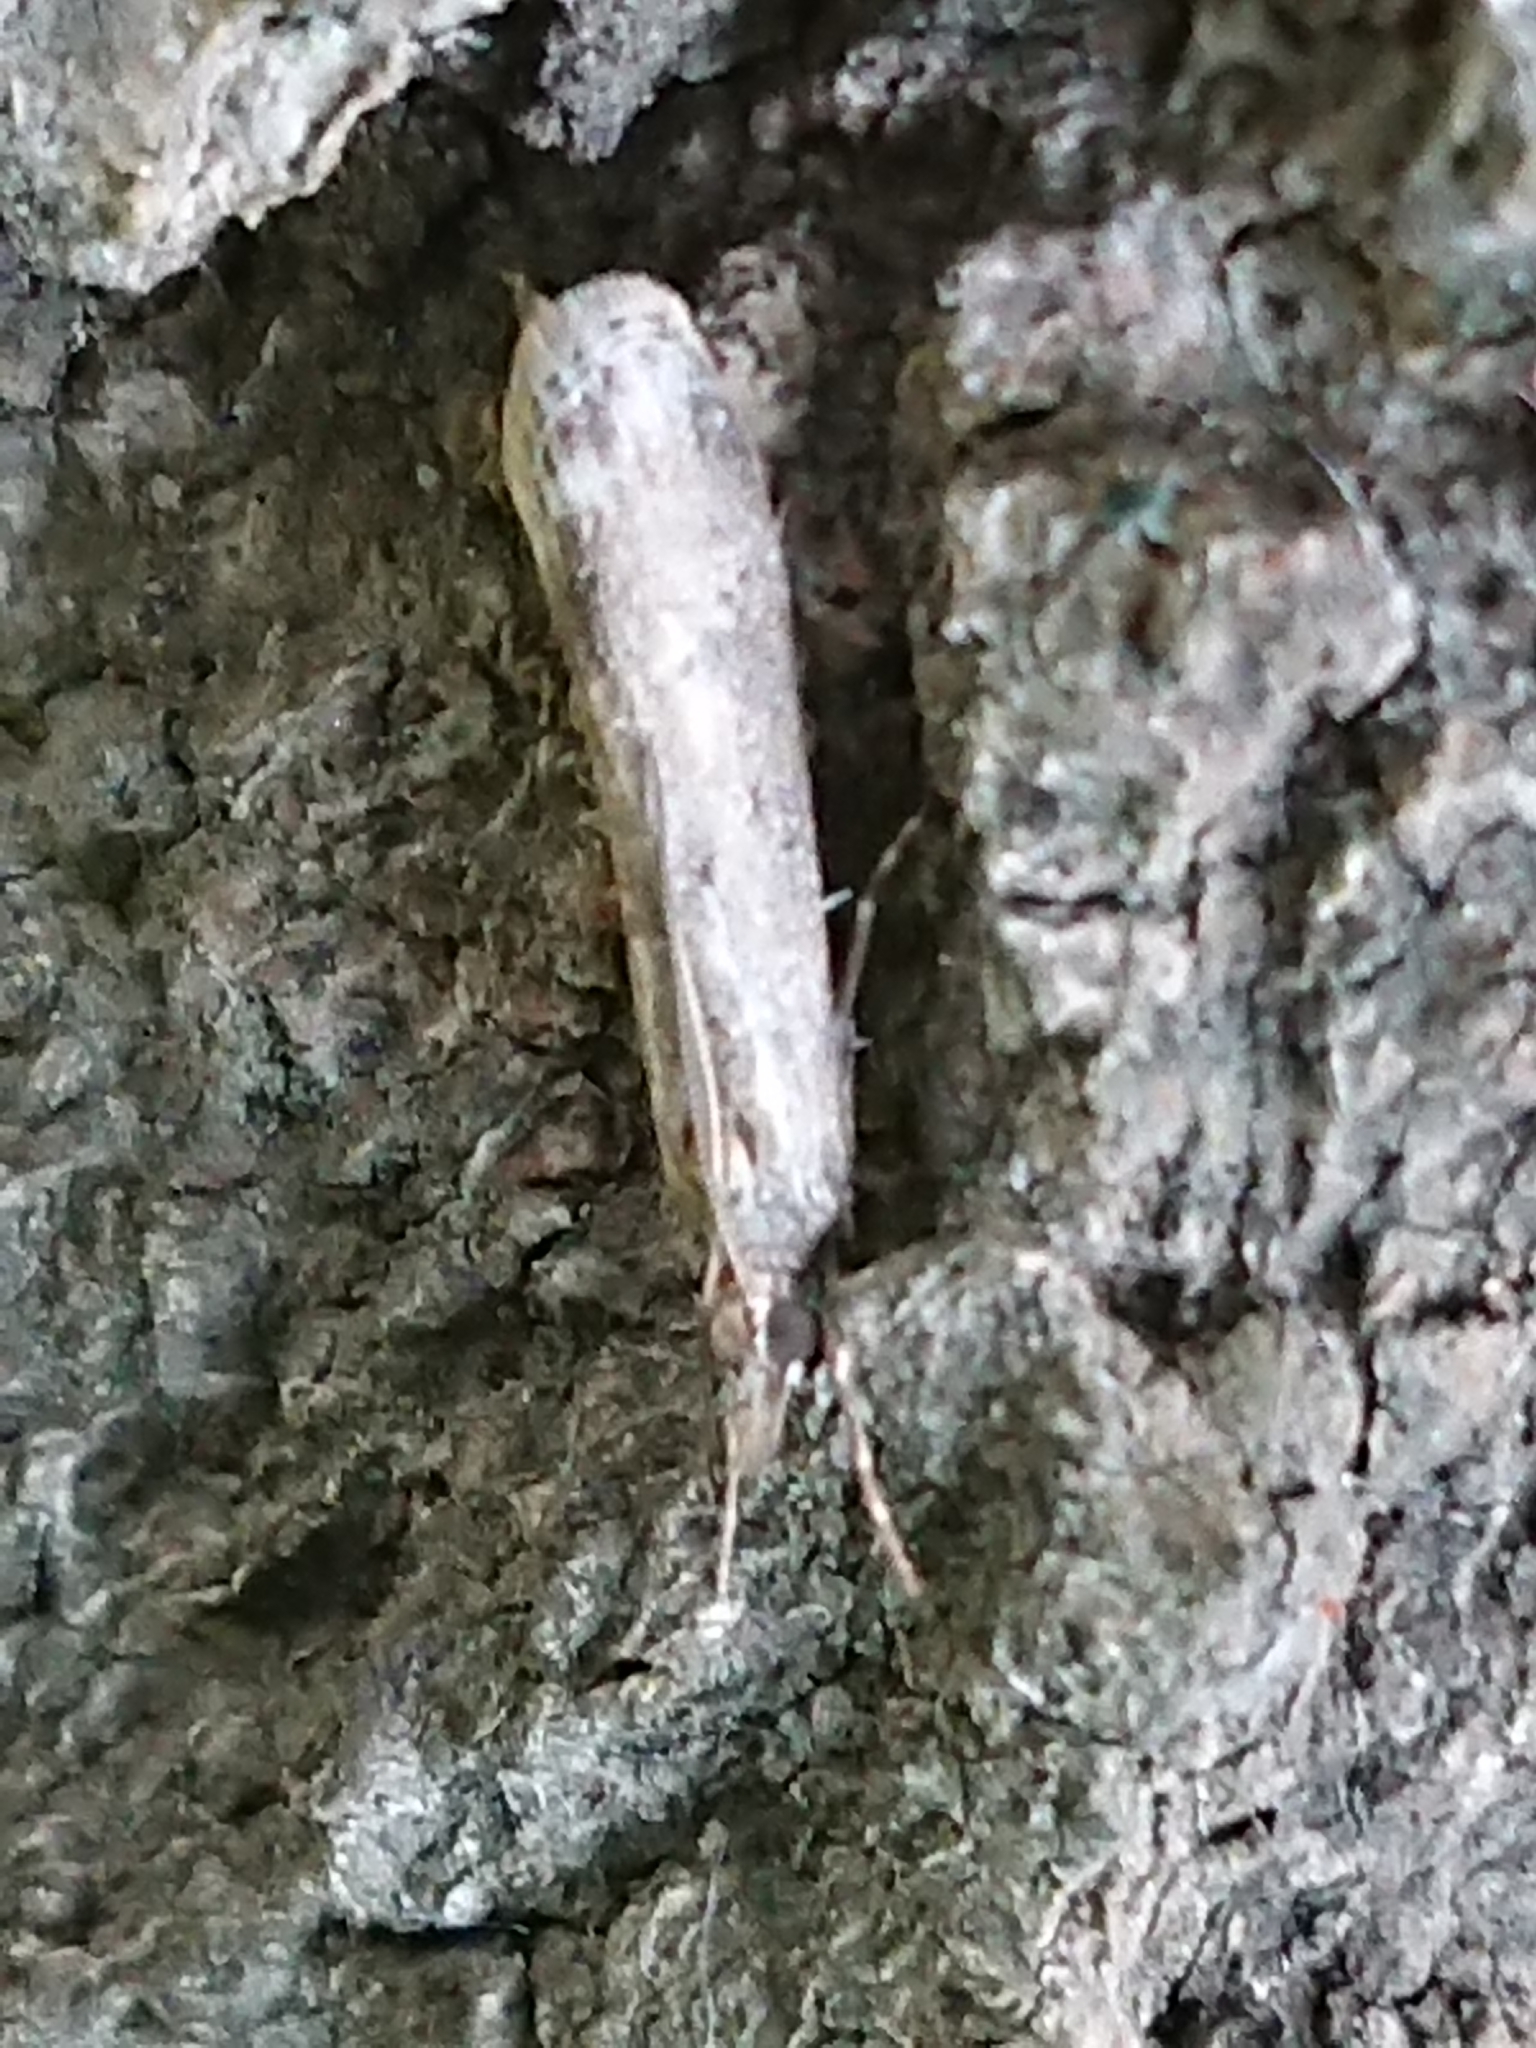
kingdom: Animalia
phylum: Arthropoda
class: Insecta
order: Lepidoptera
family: Crambidae
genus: Eudonia
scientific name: Eudonia leptalea
